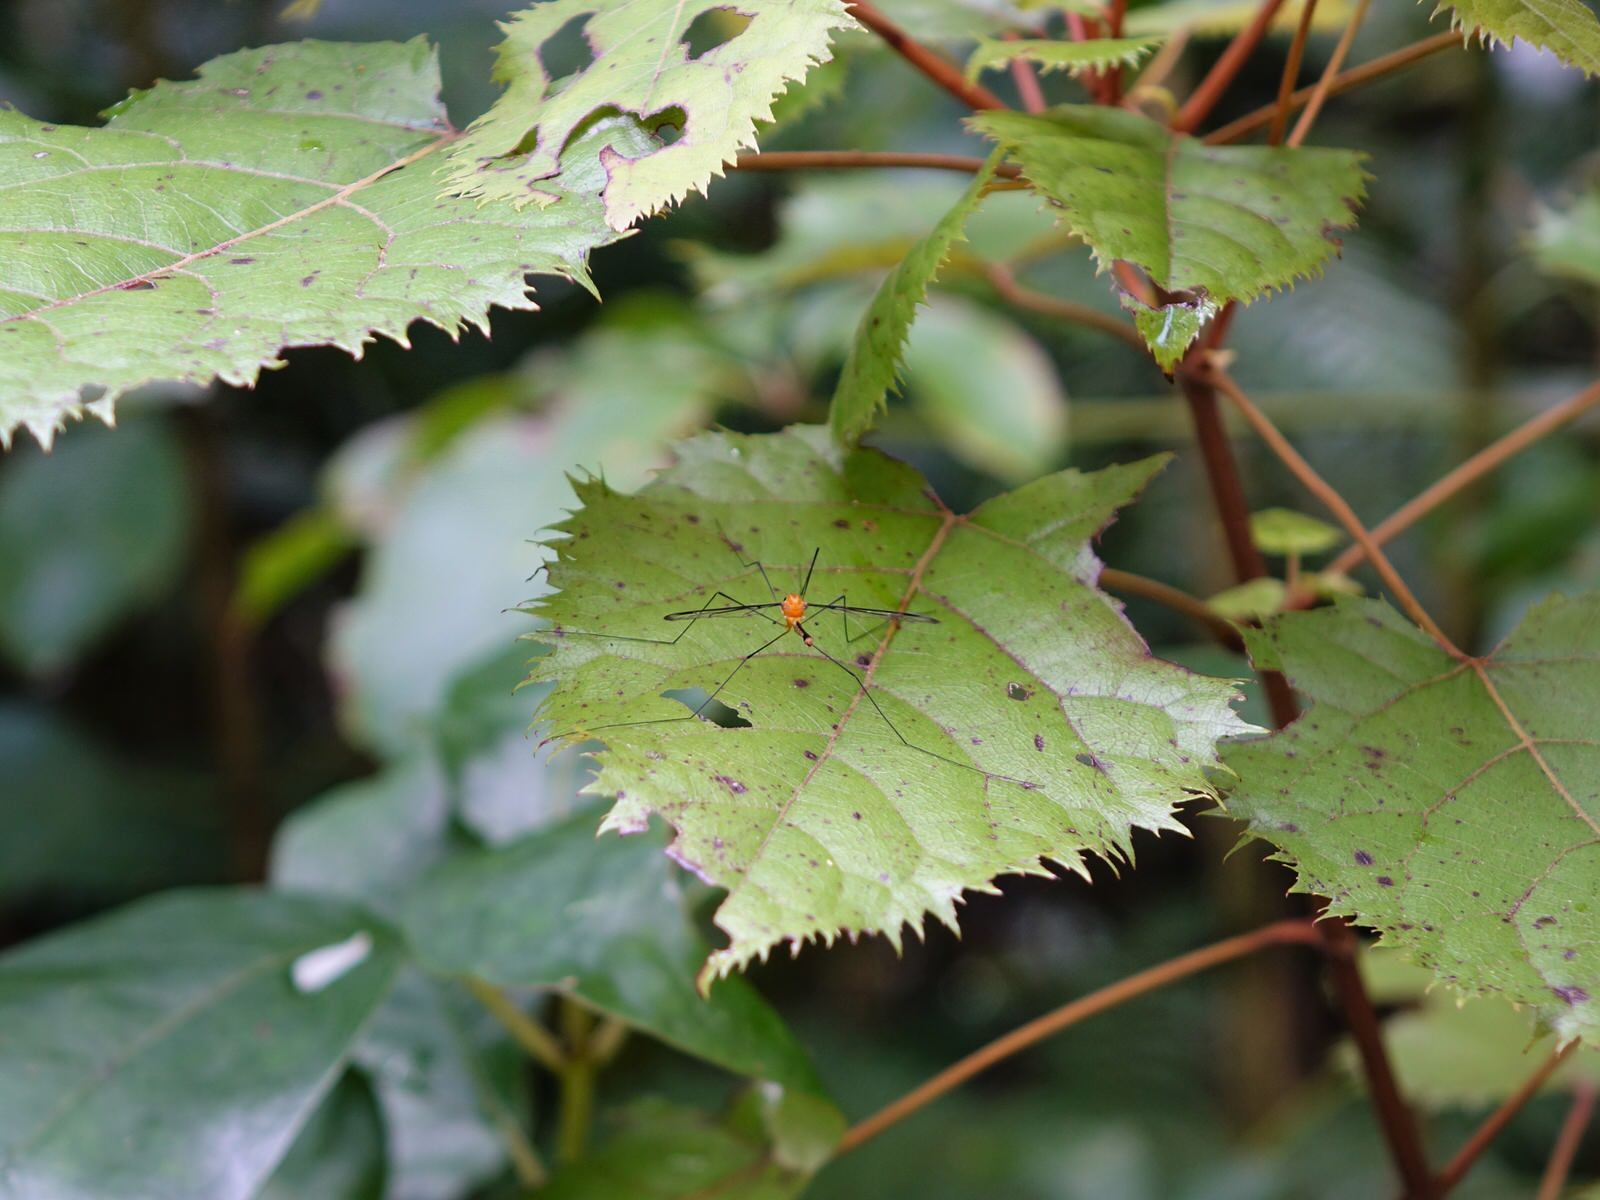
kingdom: Animalia
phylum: Arthropoda
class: Insecta
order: Diptera
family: Tipulidae
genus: Aurotipula
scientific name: Aurotipula
